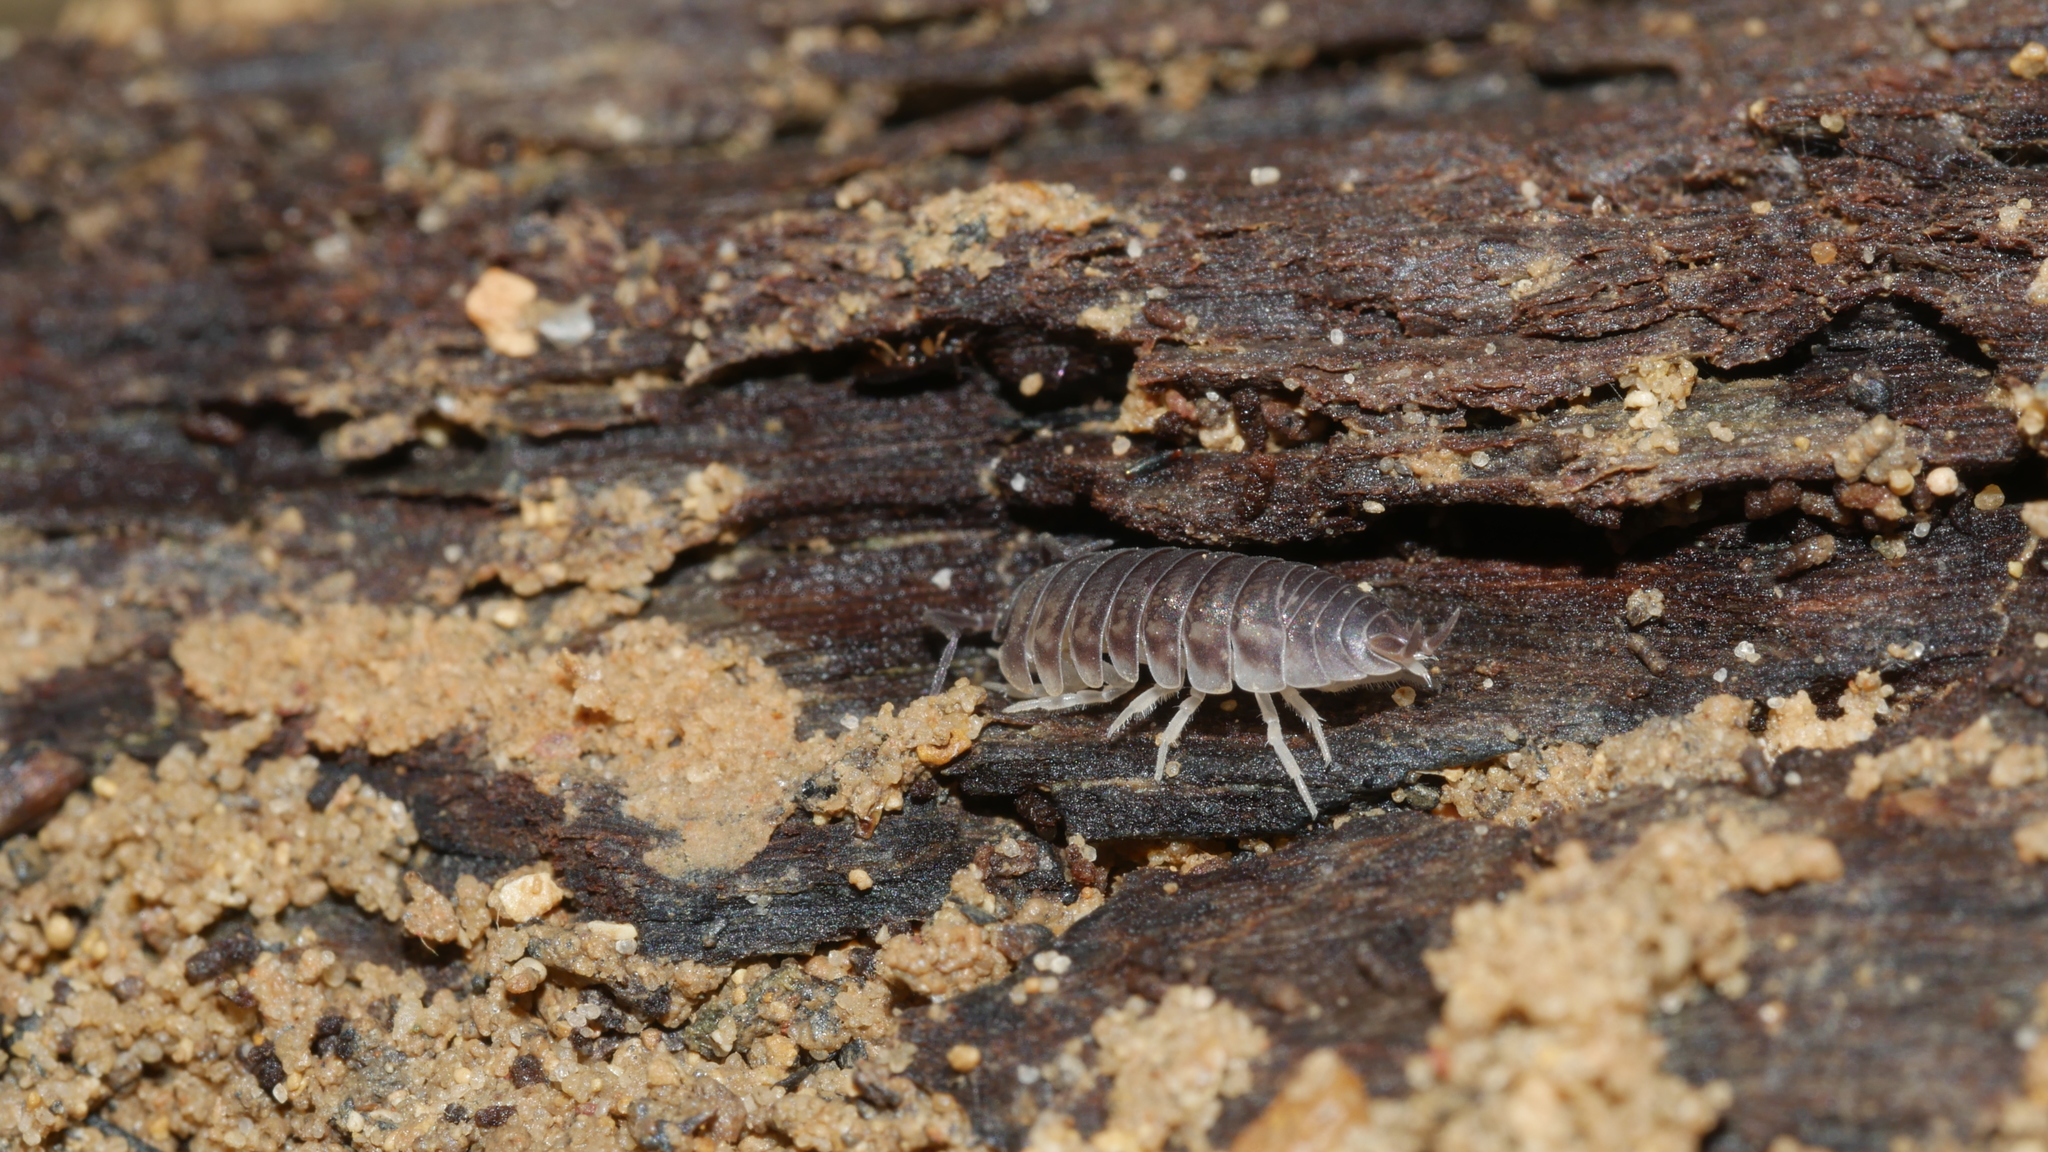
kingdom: Animalia
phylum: Arthropoda
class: Malacostraca
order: Isopoda
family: Cylisticidae
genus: Cylisticus
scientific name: Cylisticus convexus
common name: Curly woodlouse
